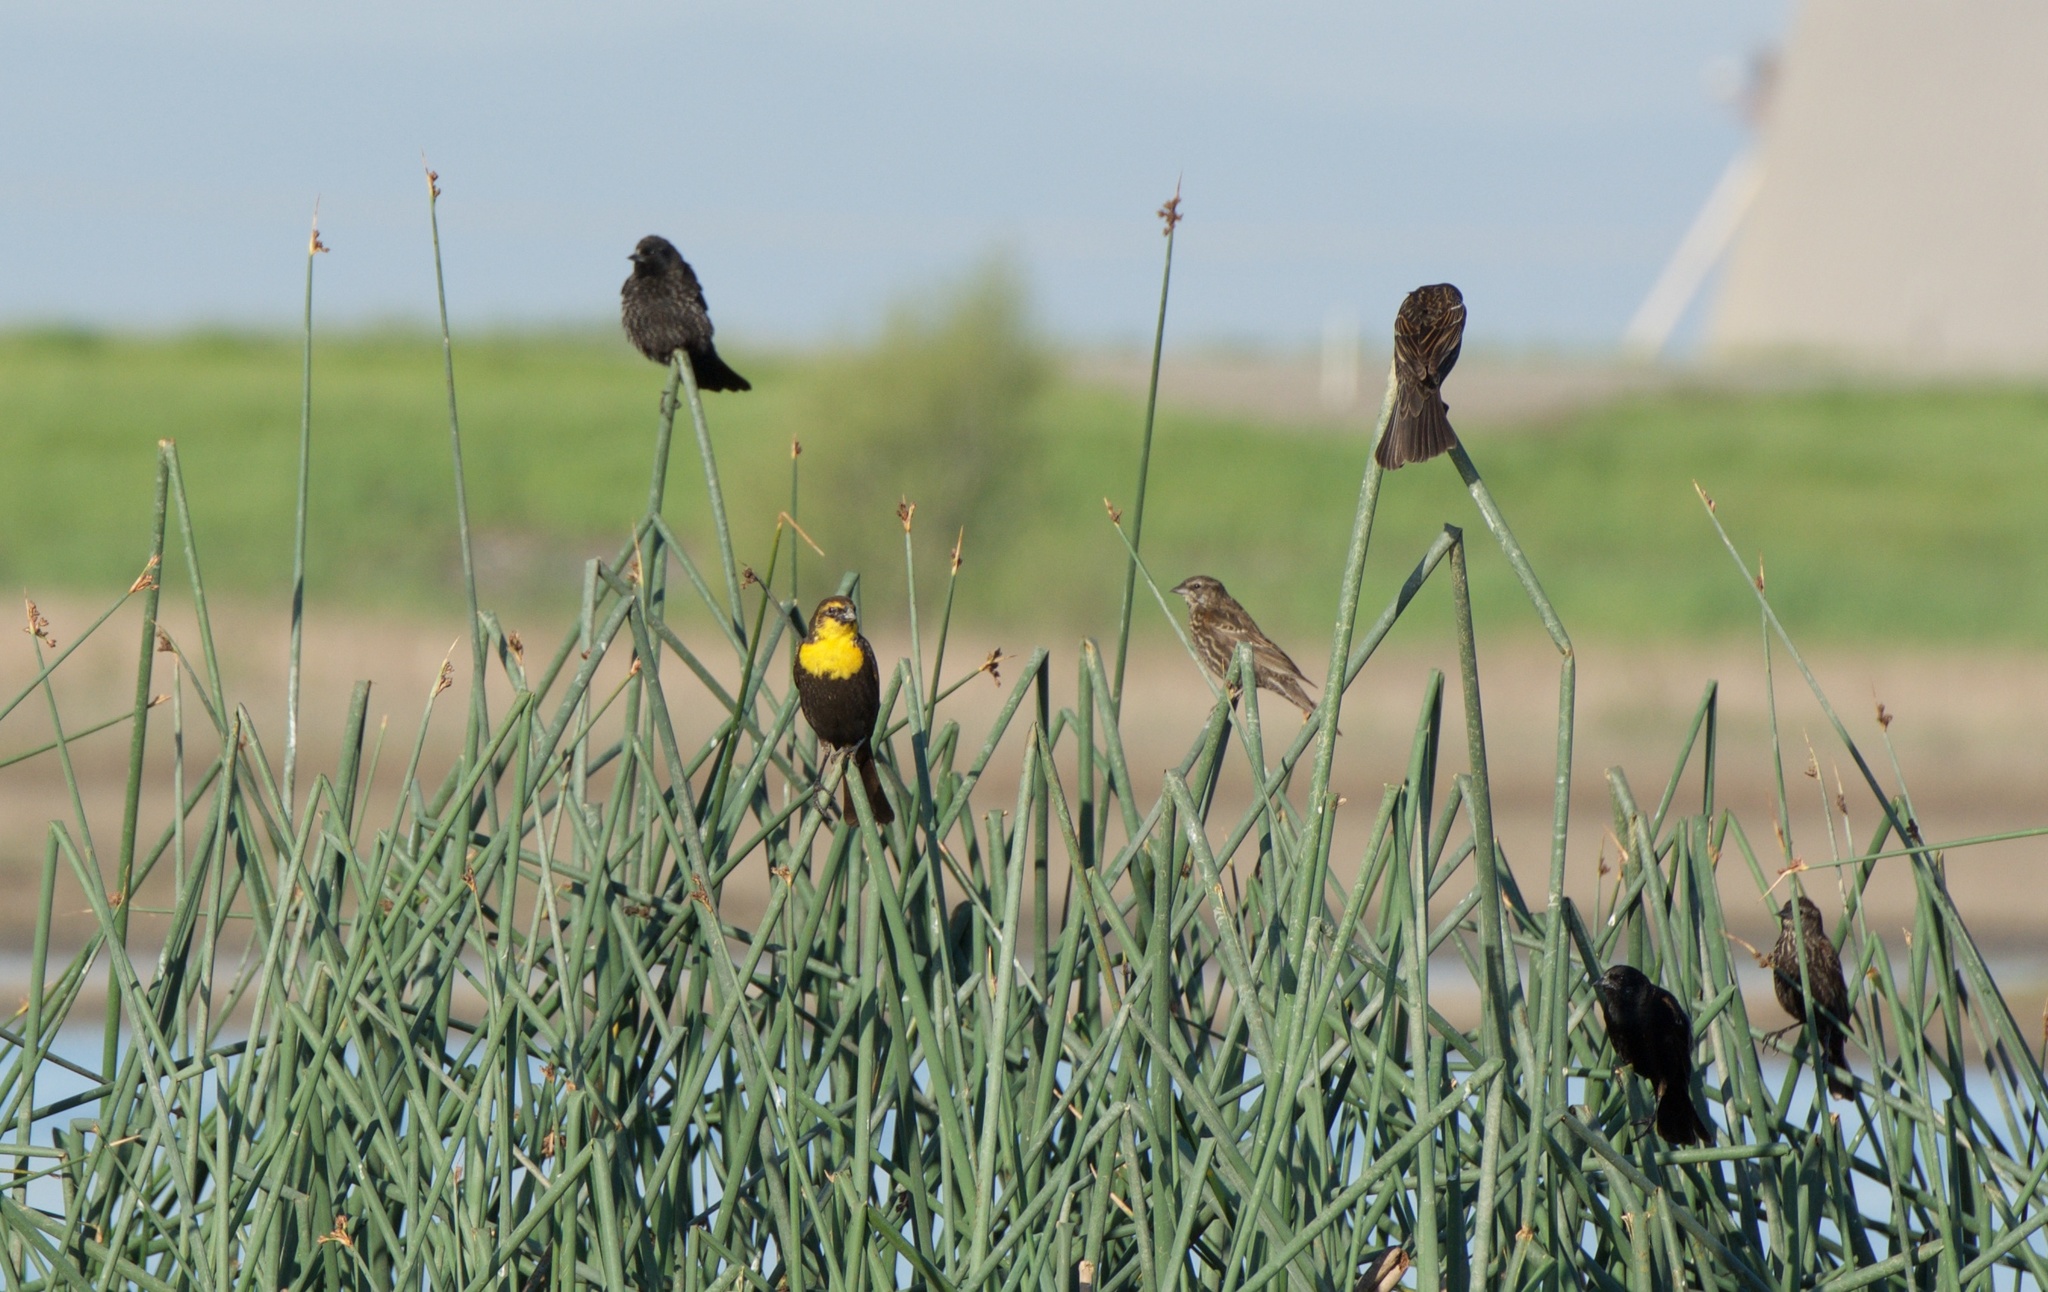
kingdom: Animalia
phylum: Chordata
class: Aves
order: Passeriformes
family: Icteridae
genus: Xanthocephalus
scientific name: Xanthocephalus xanthocephalus
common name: Yellow-headed blackbird
